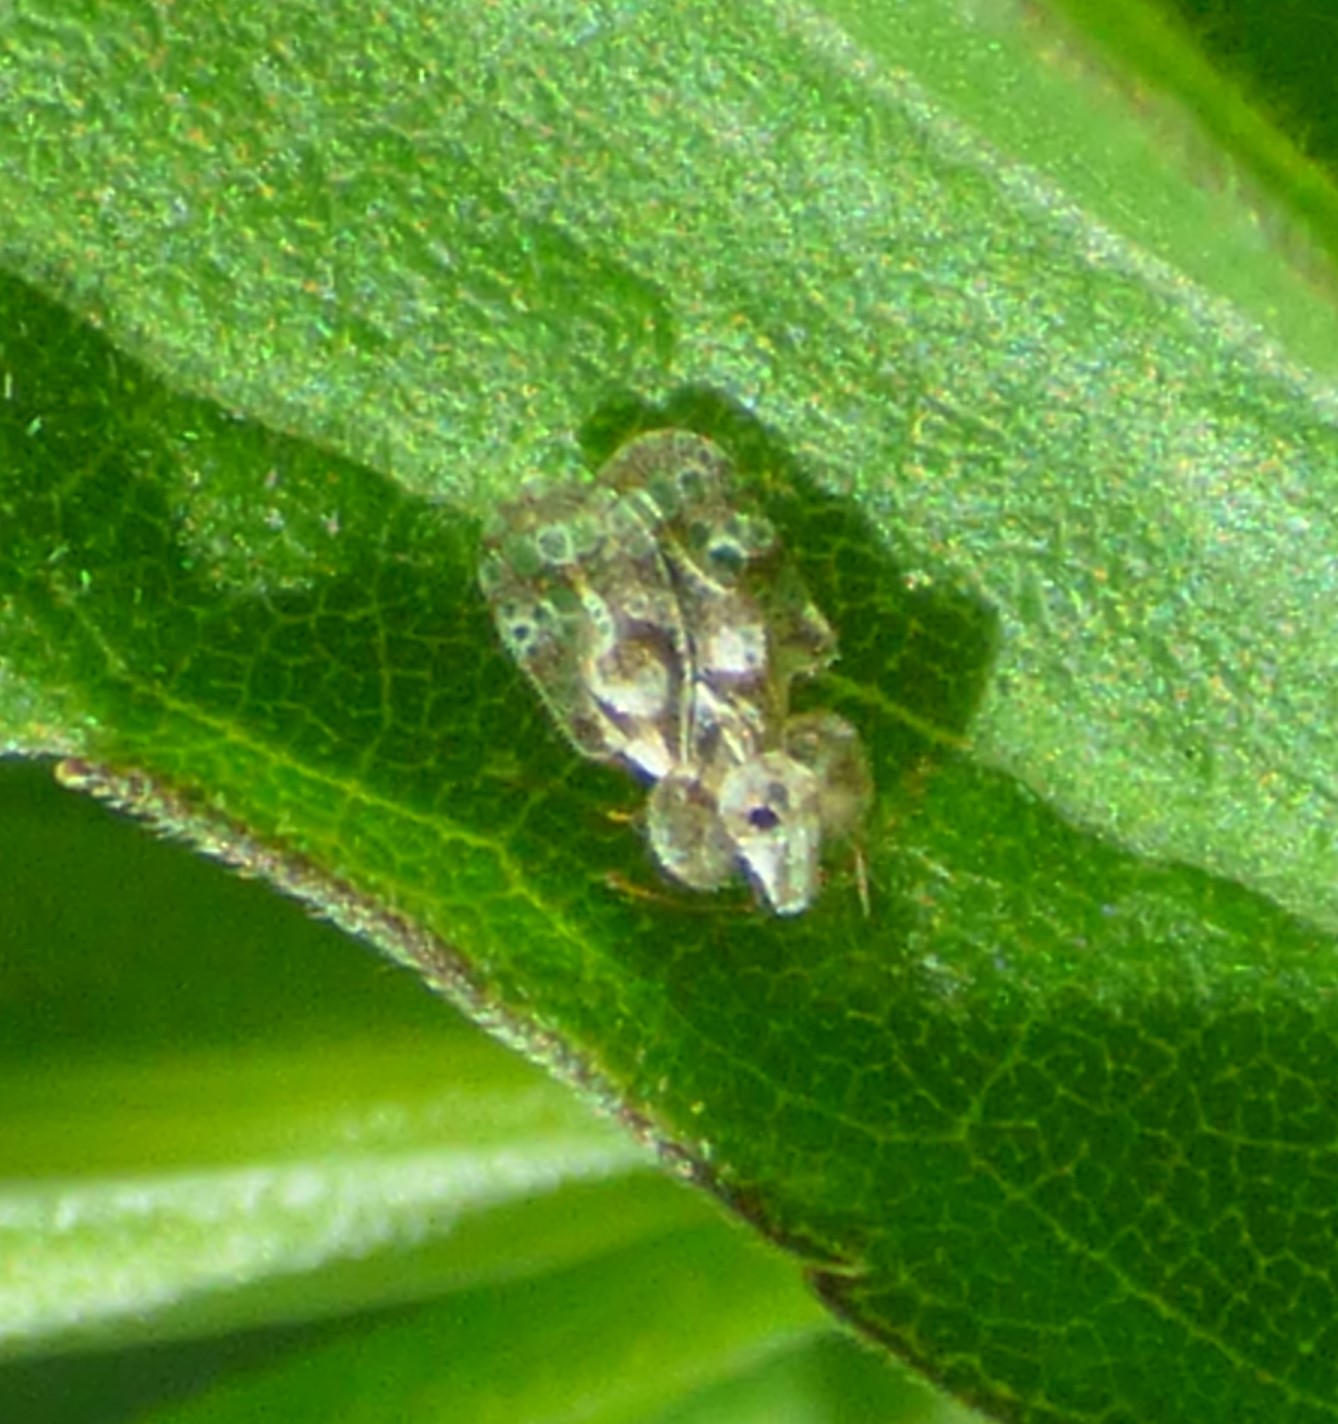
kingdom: Animalia
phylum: Arthropoda
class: Insecta
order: Hemiptera
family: Tingidae
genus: Corythucha
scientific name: Corythucha marmorata
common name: Chrysanthemum lace bug
